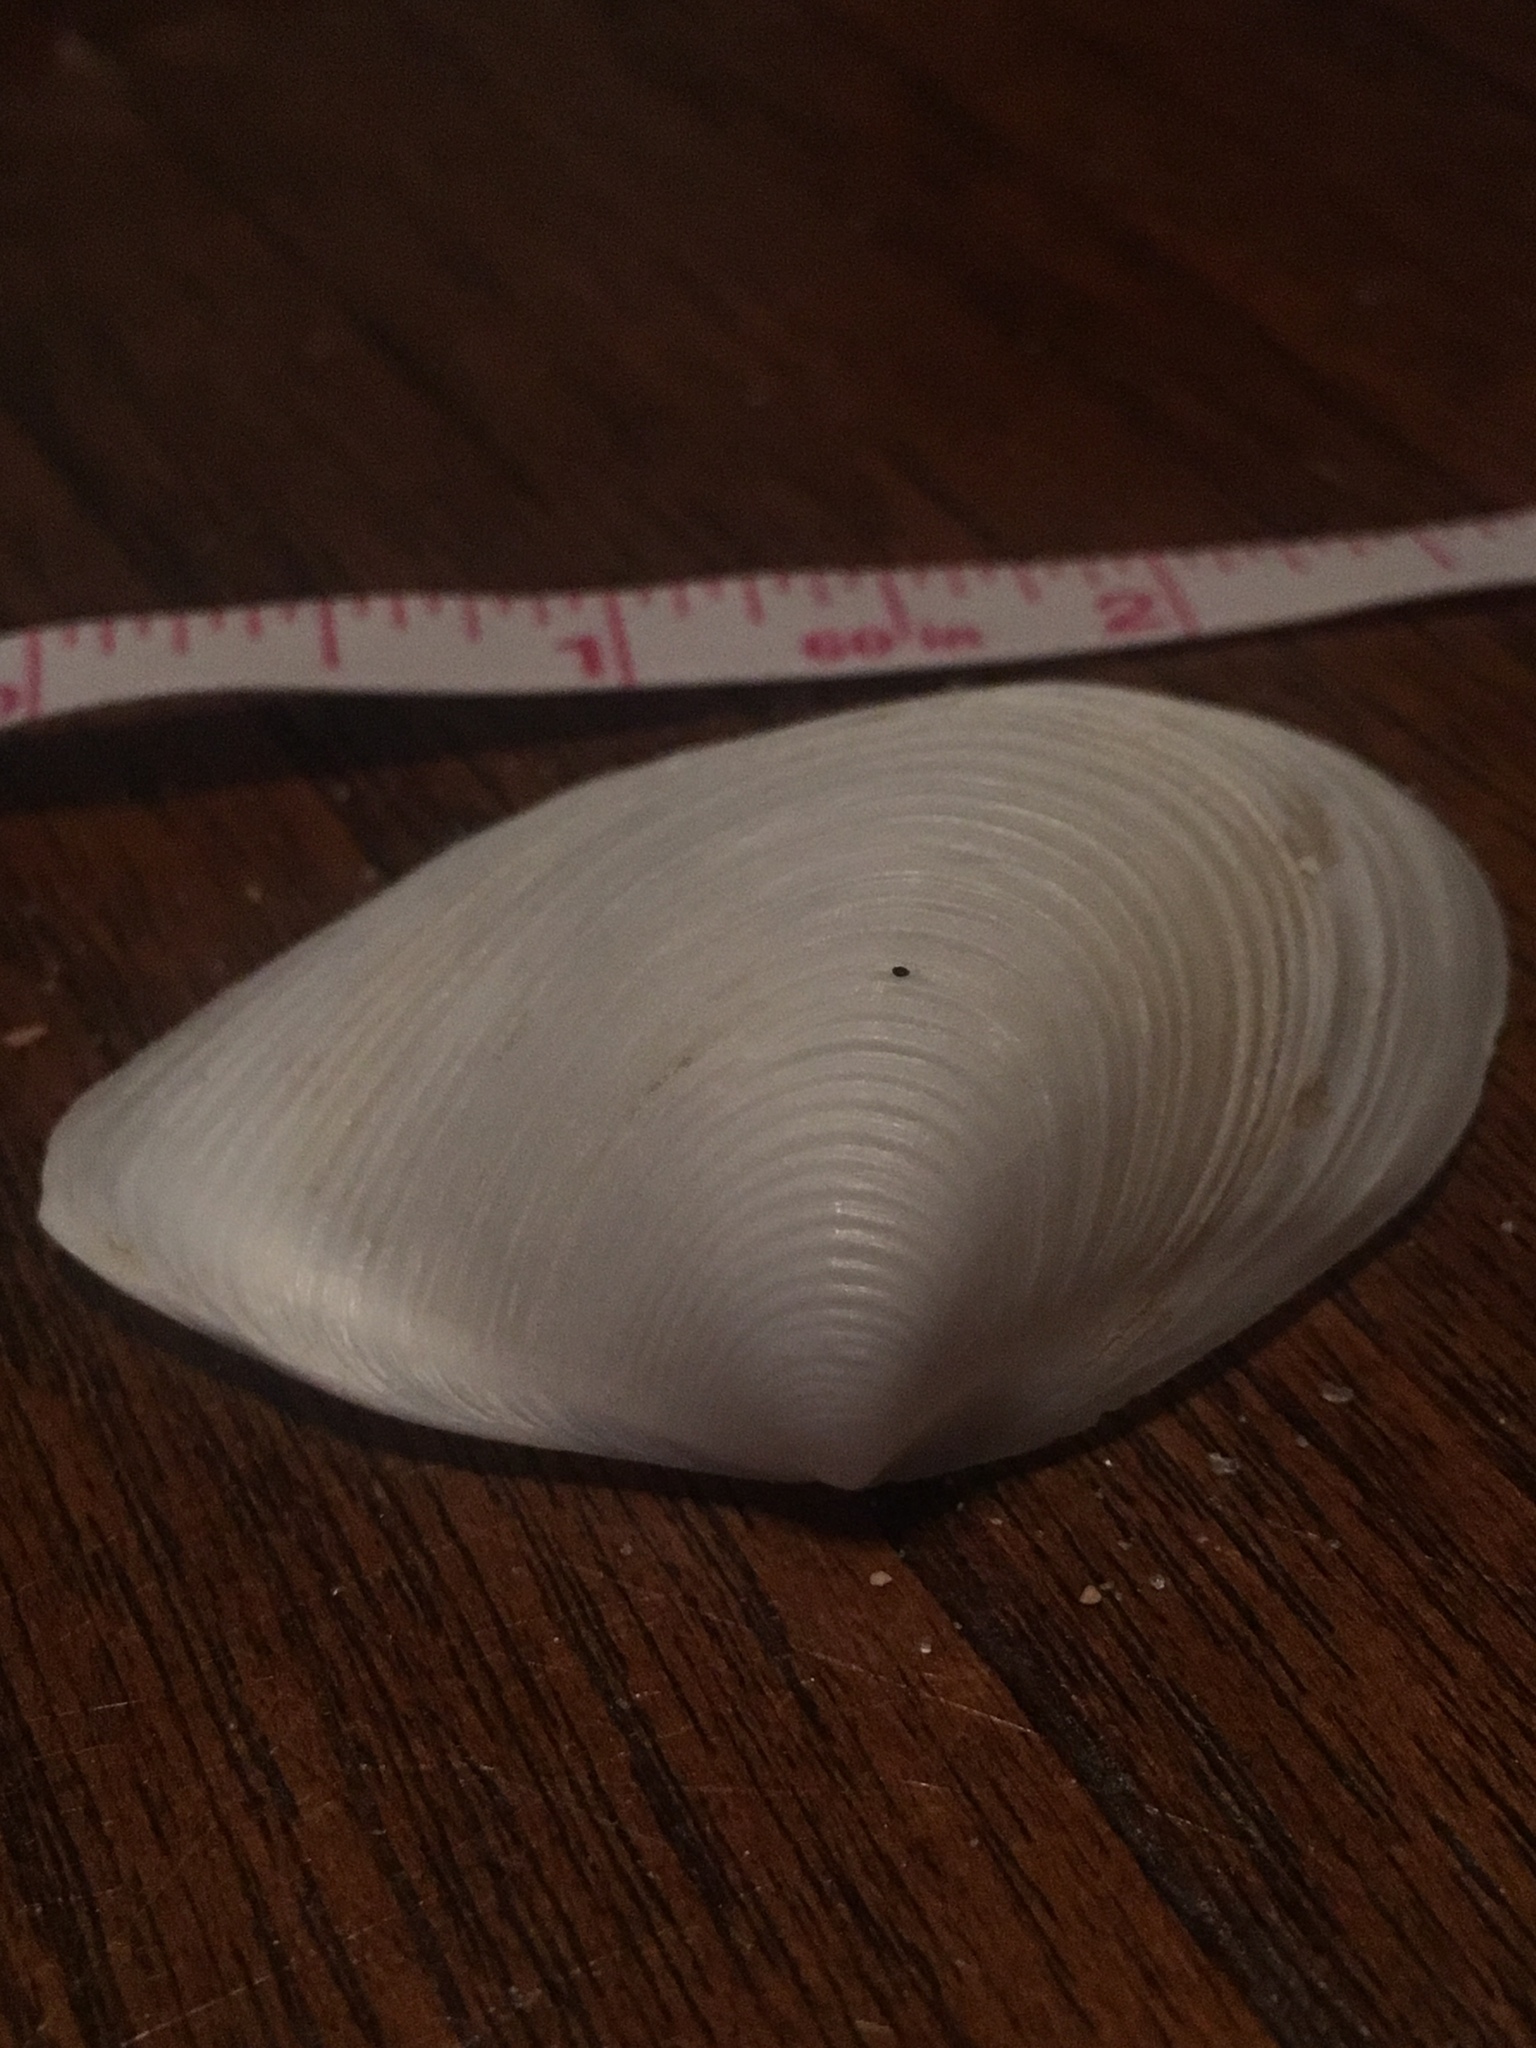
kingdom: Animalia
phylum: Mollusca
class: Bivalvia
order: Venerida
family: Anatinellidae
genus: Raeta
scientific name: Raeta plicatella
